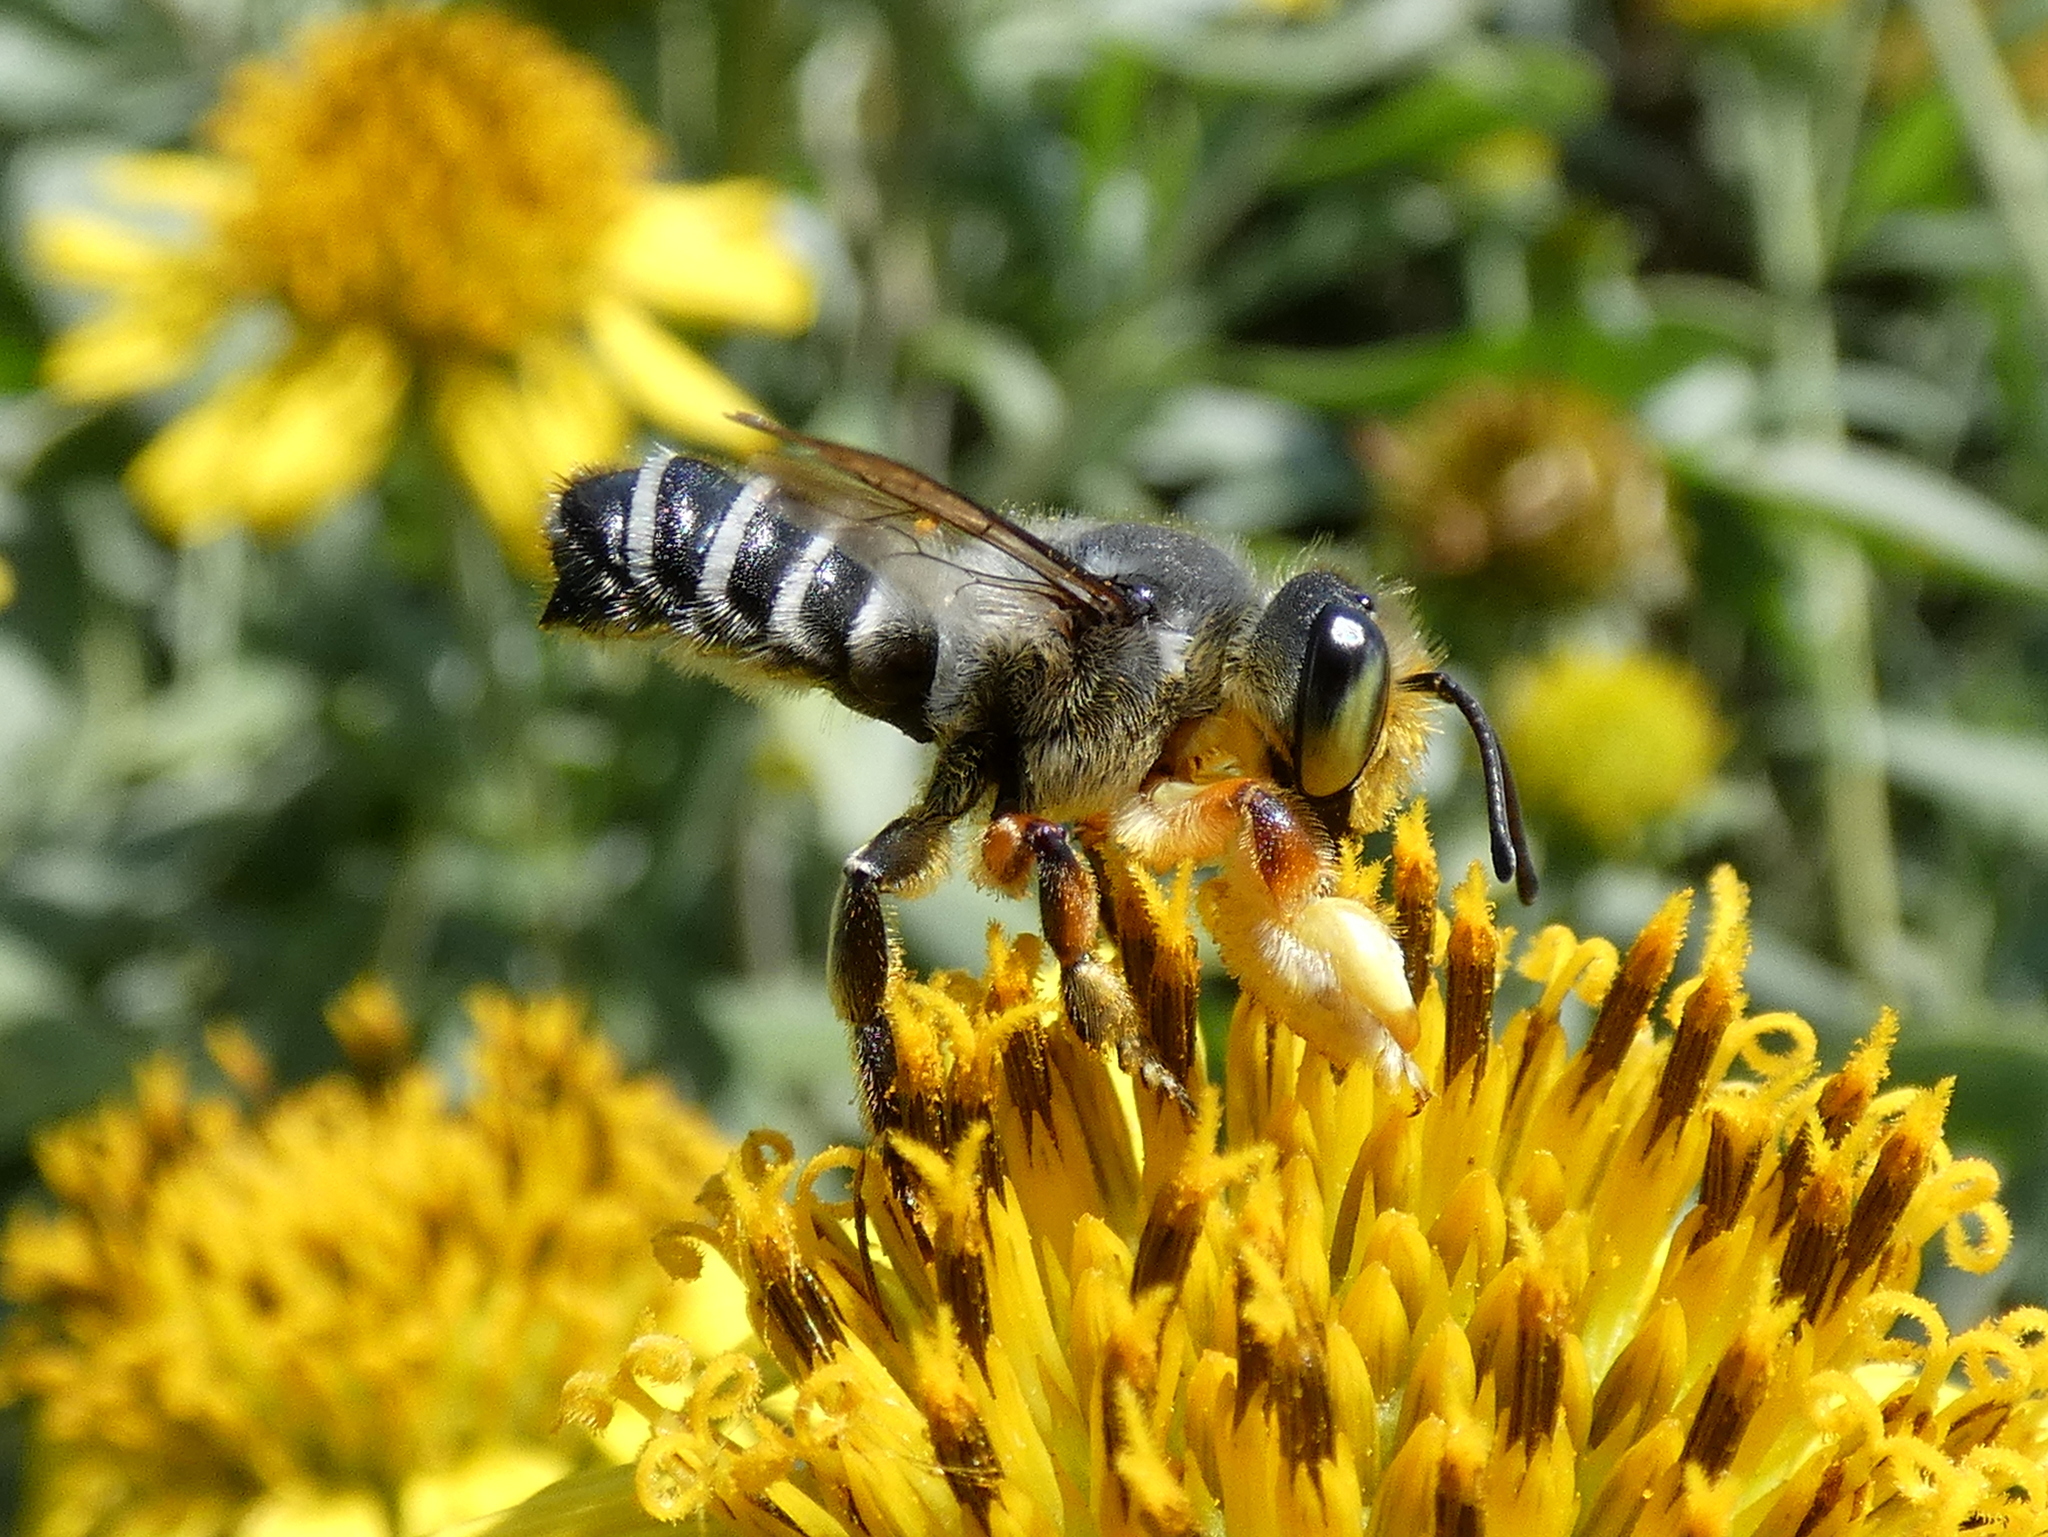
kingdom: Animalia
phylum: Arthropoda
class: Insecta
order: Hymenoptera
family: Megachilidae
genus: Megachile
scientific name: Megachile policaris
